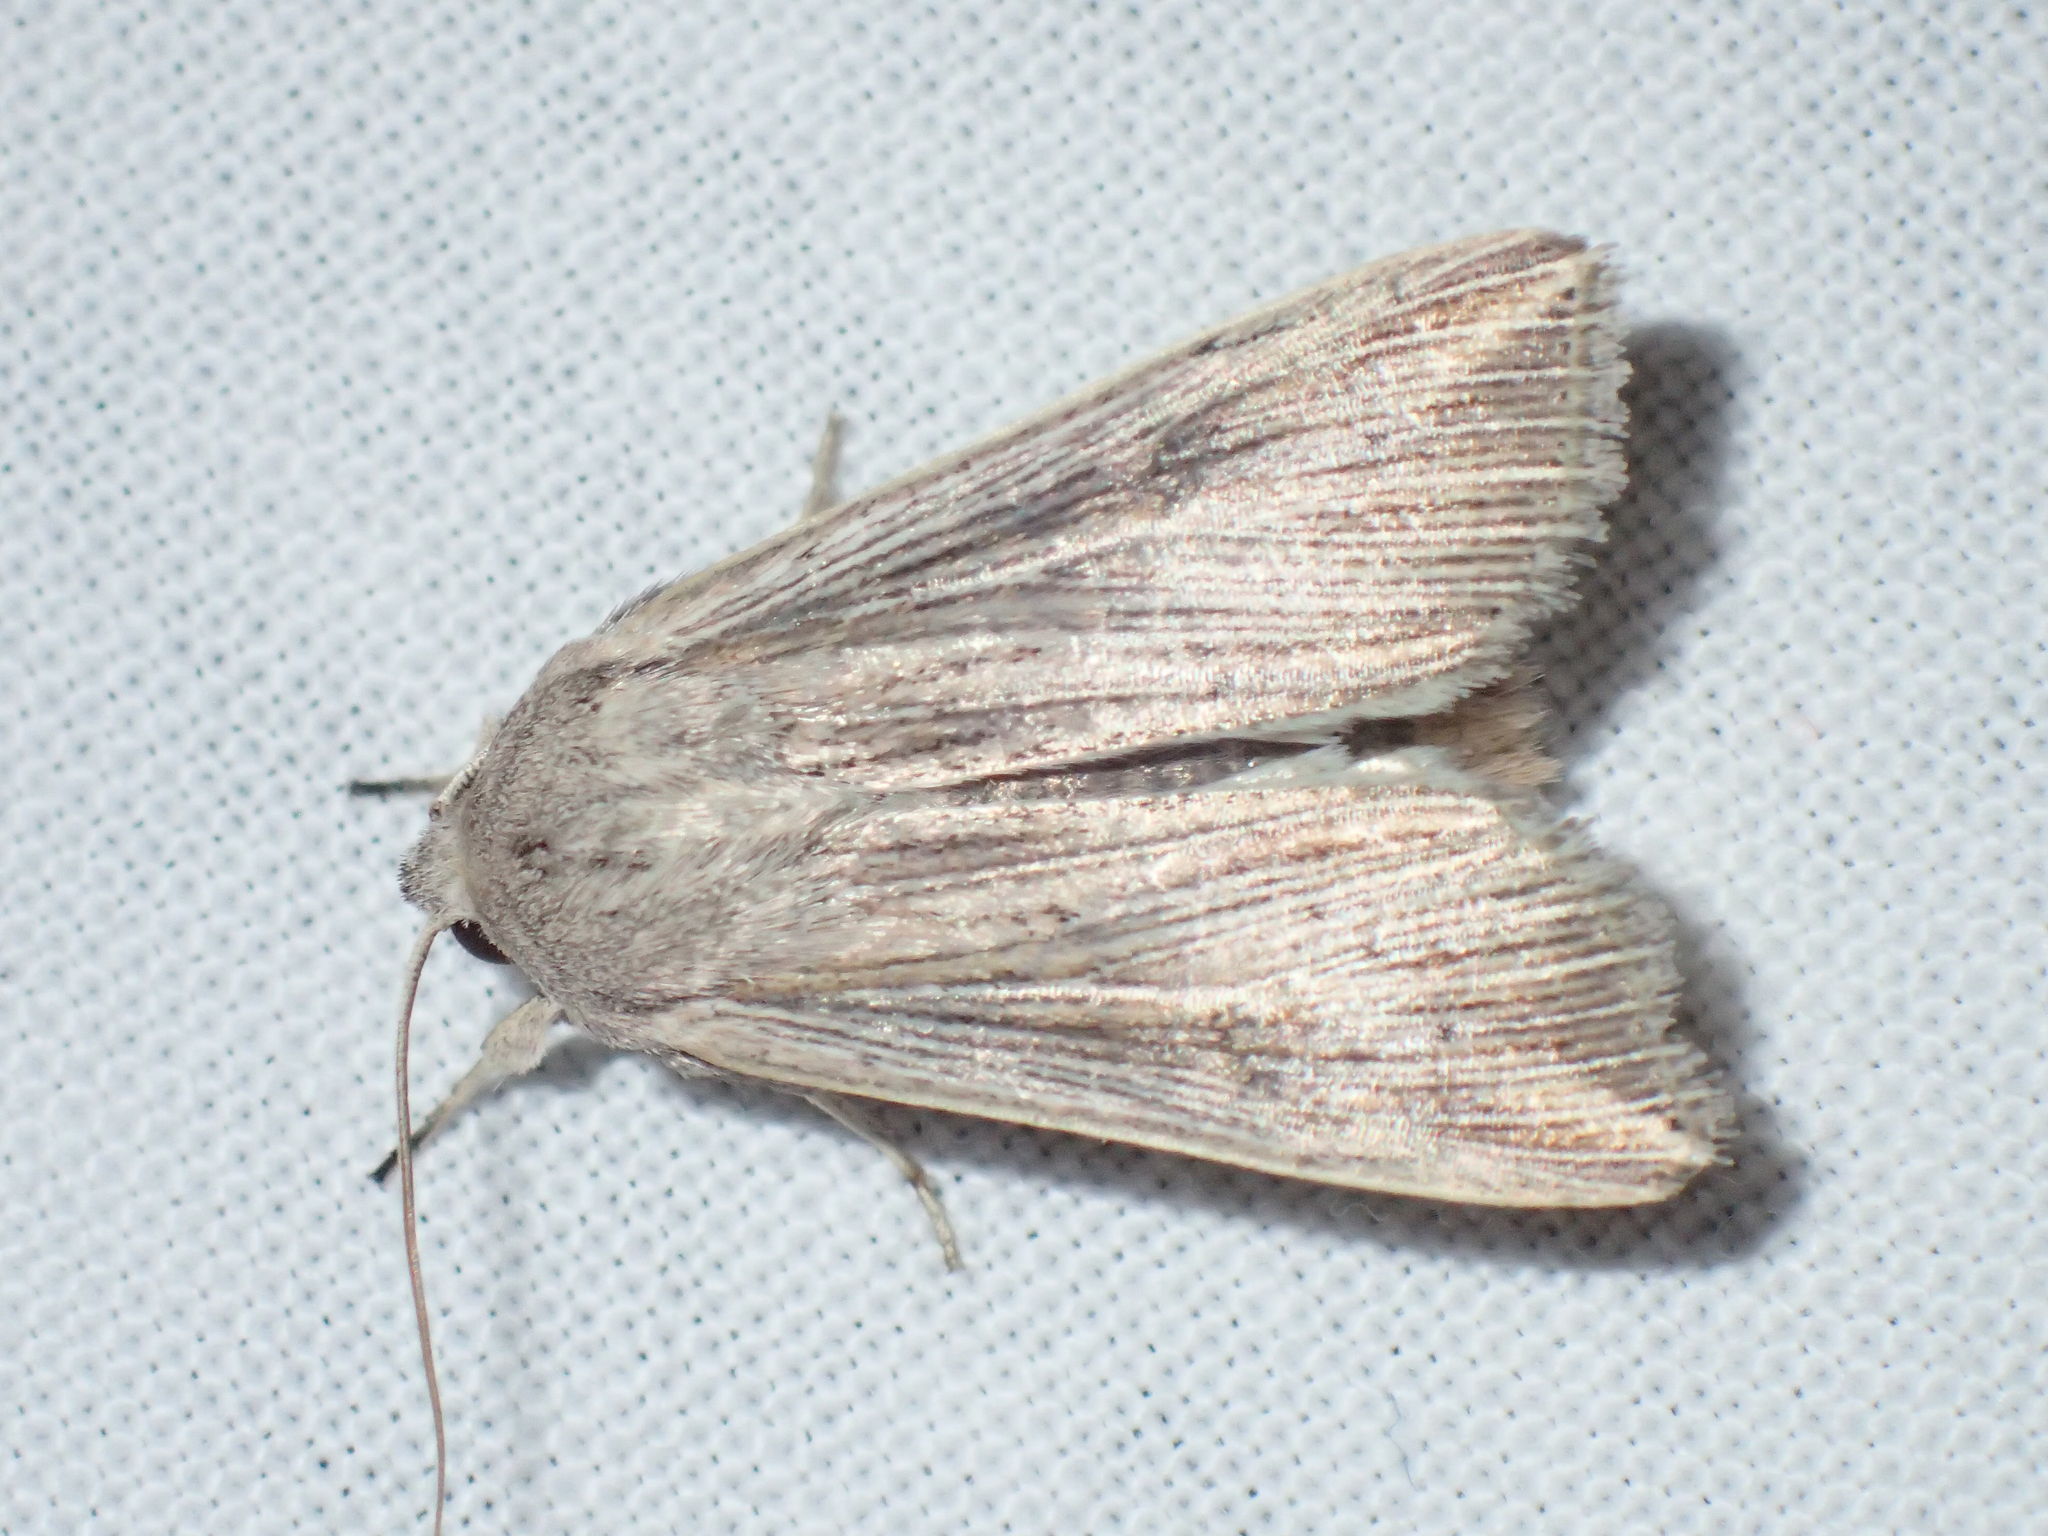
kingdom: Animalia
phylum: Arthropoda
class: Insecta
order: Lepidoptera
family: Noctuidae
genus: Mythimna
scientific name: Mythimna riparia
